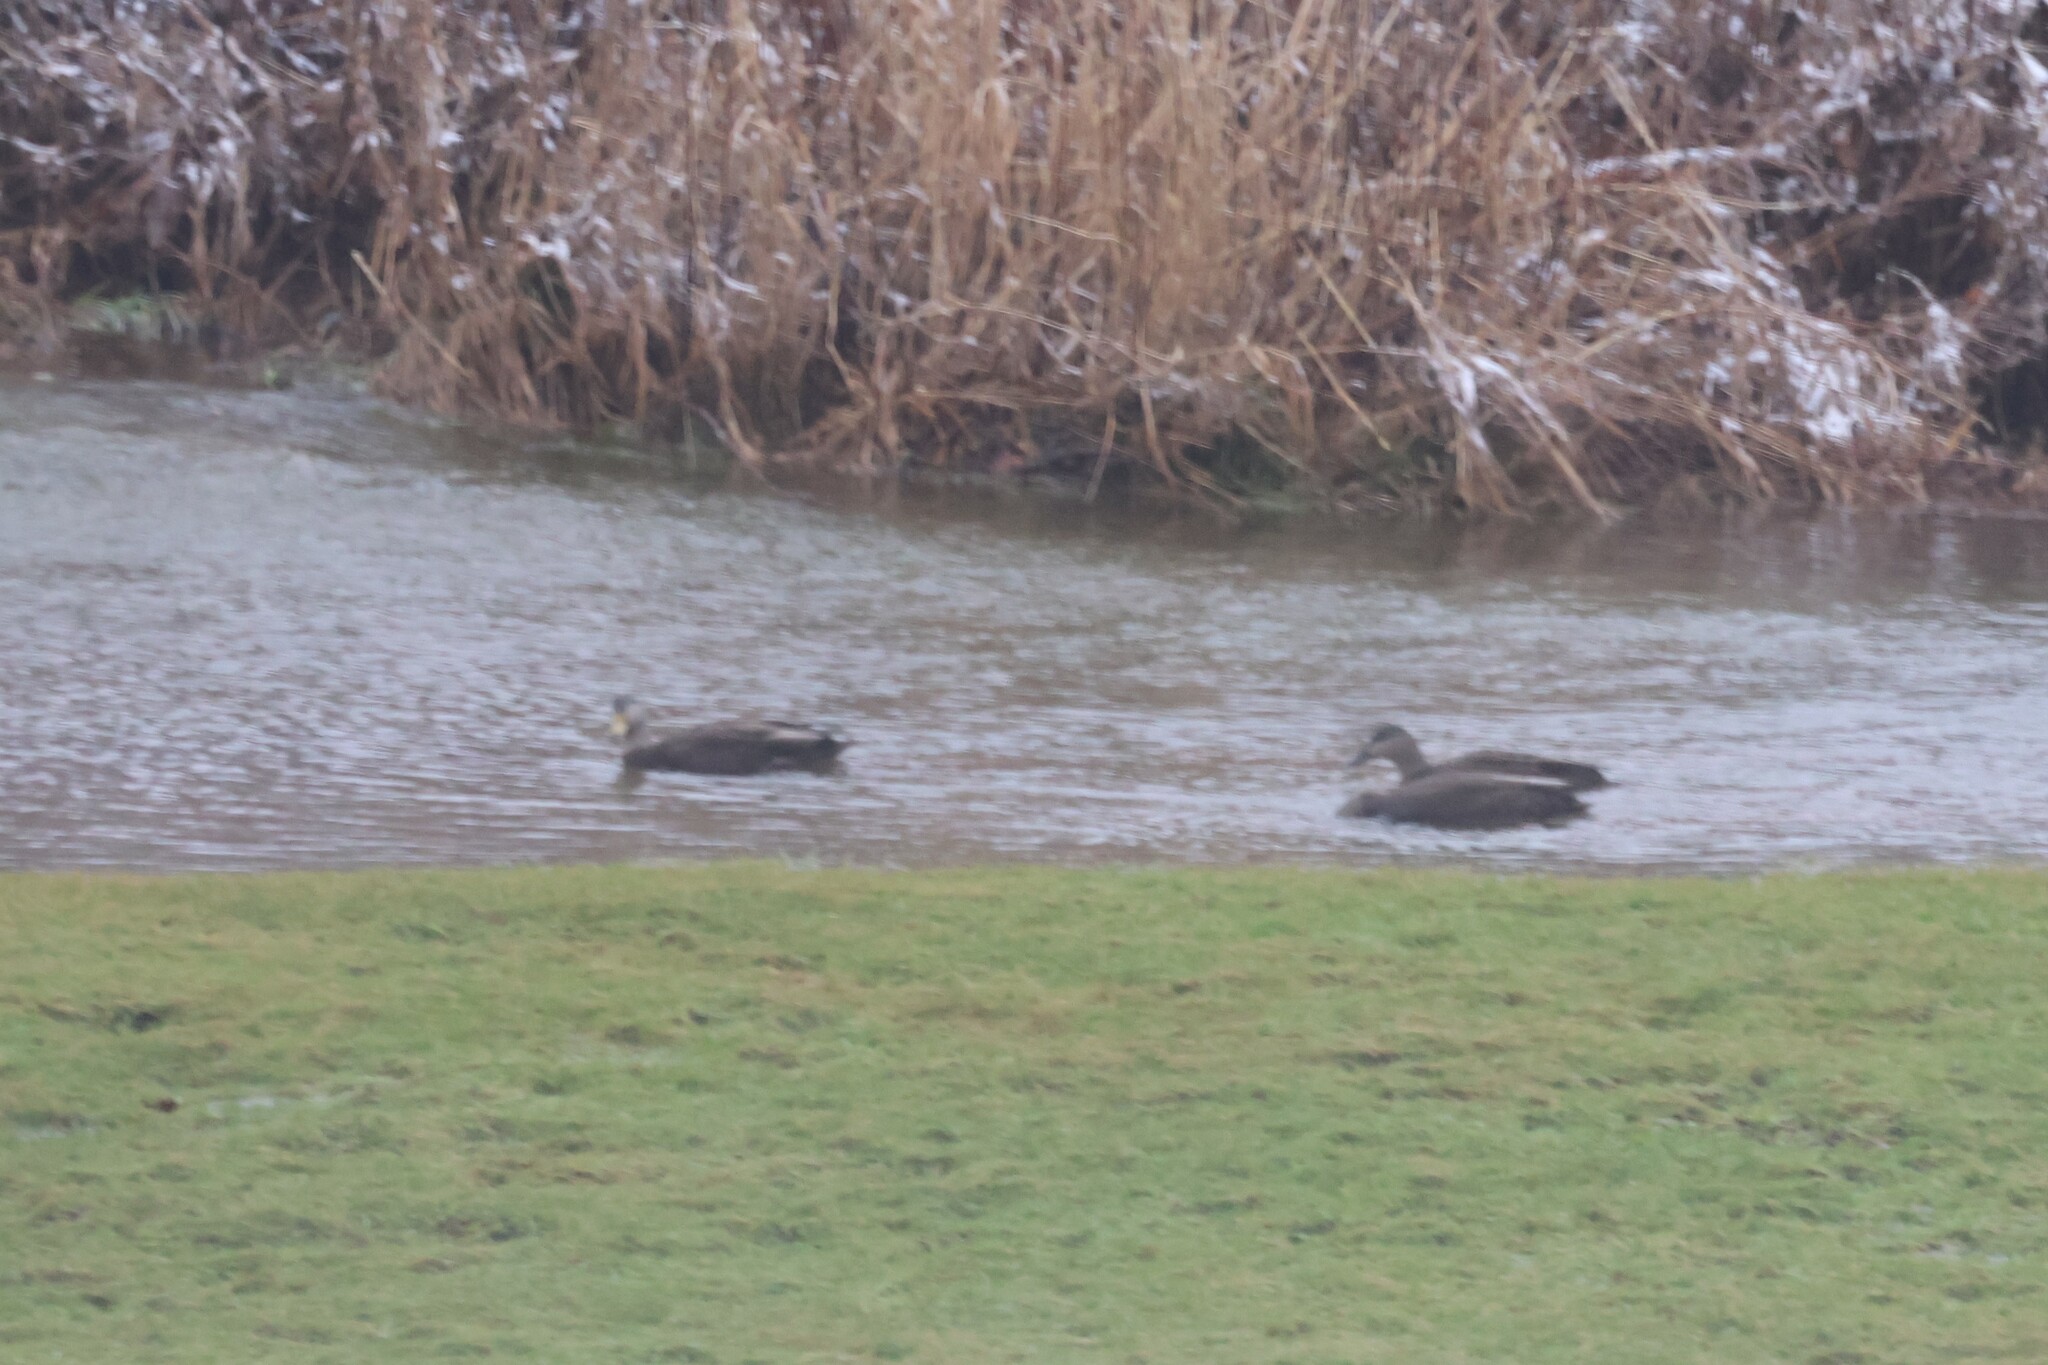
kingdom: Animalia
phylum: Chordata
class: Aves
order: Anseriformes
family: Anatidae
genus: Anas
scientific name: Anas rubripes
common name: American black duck
